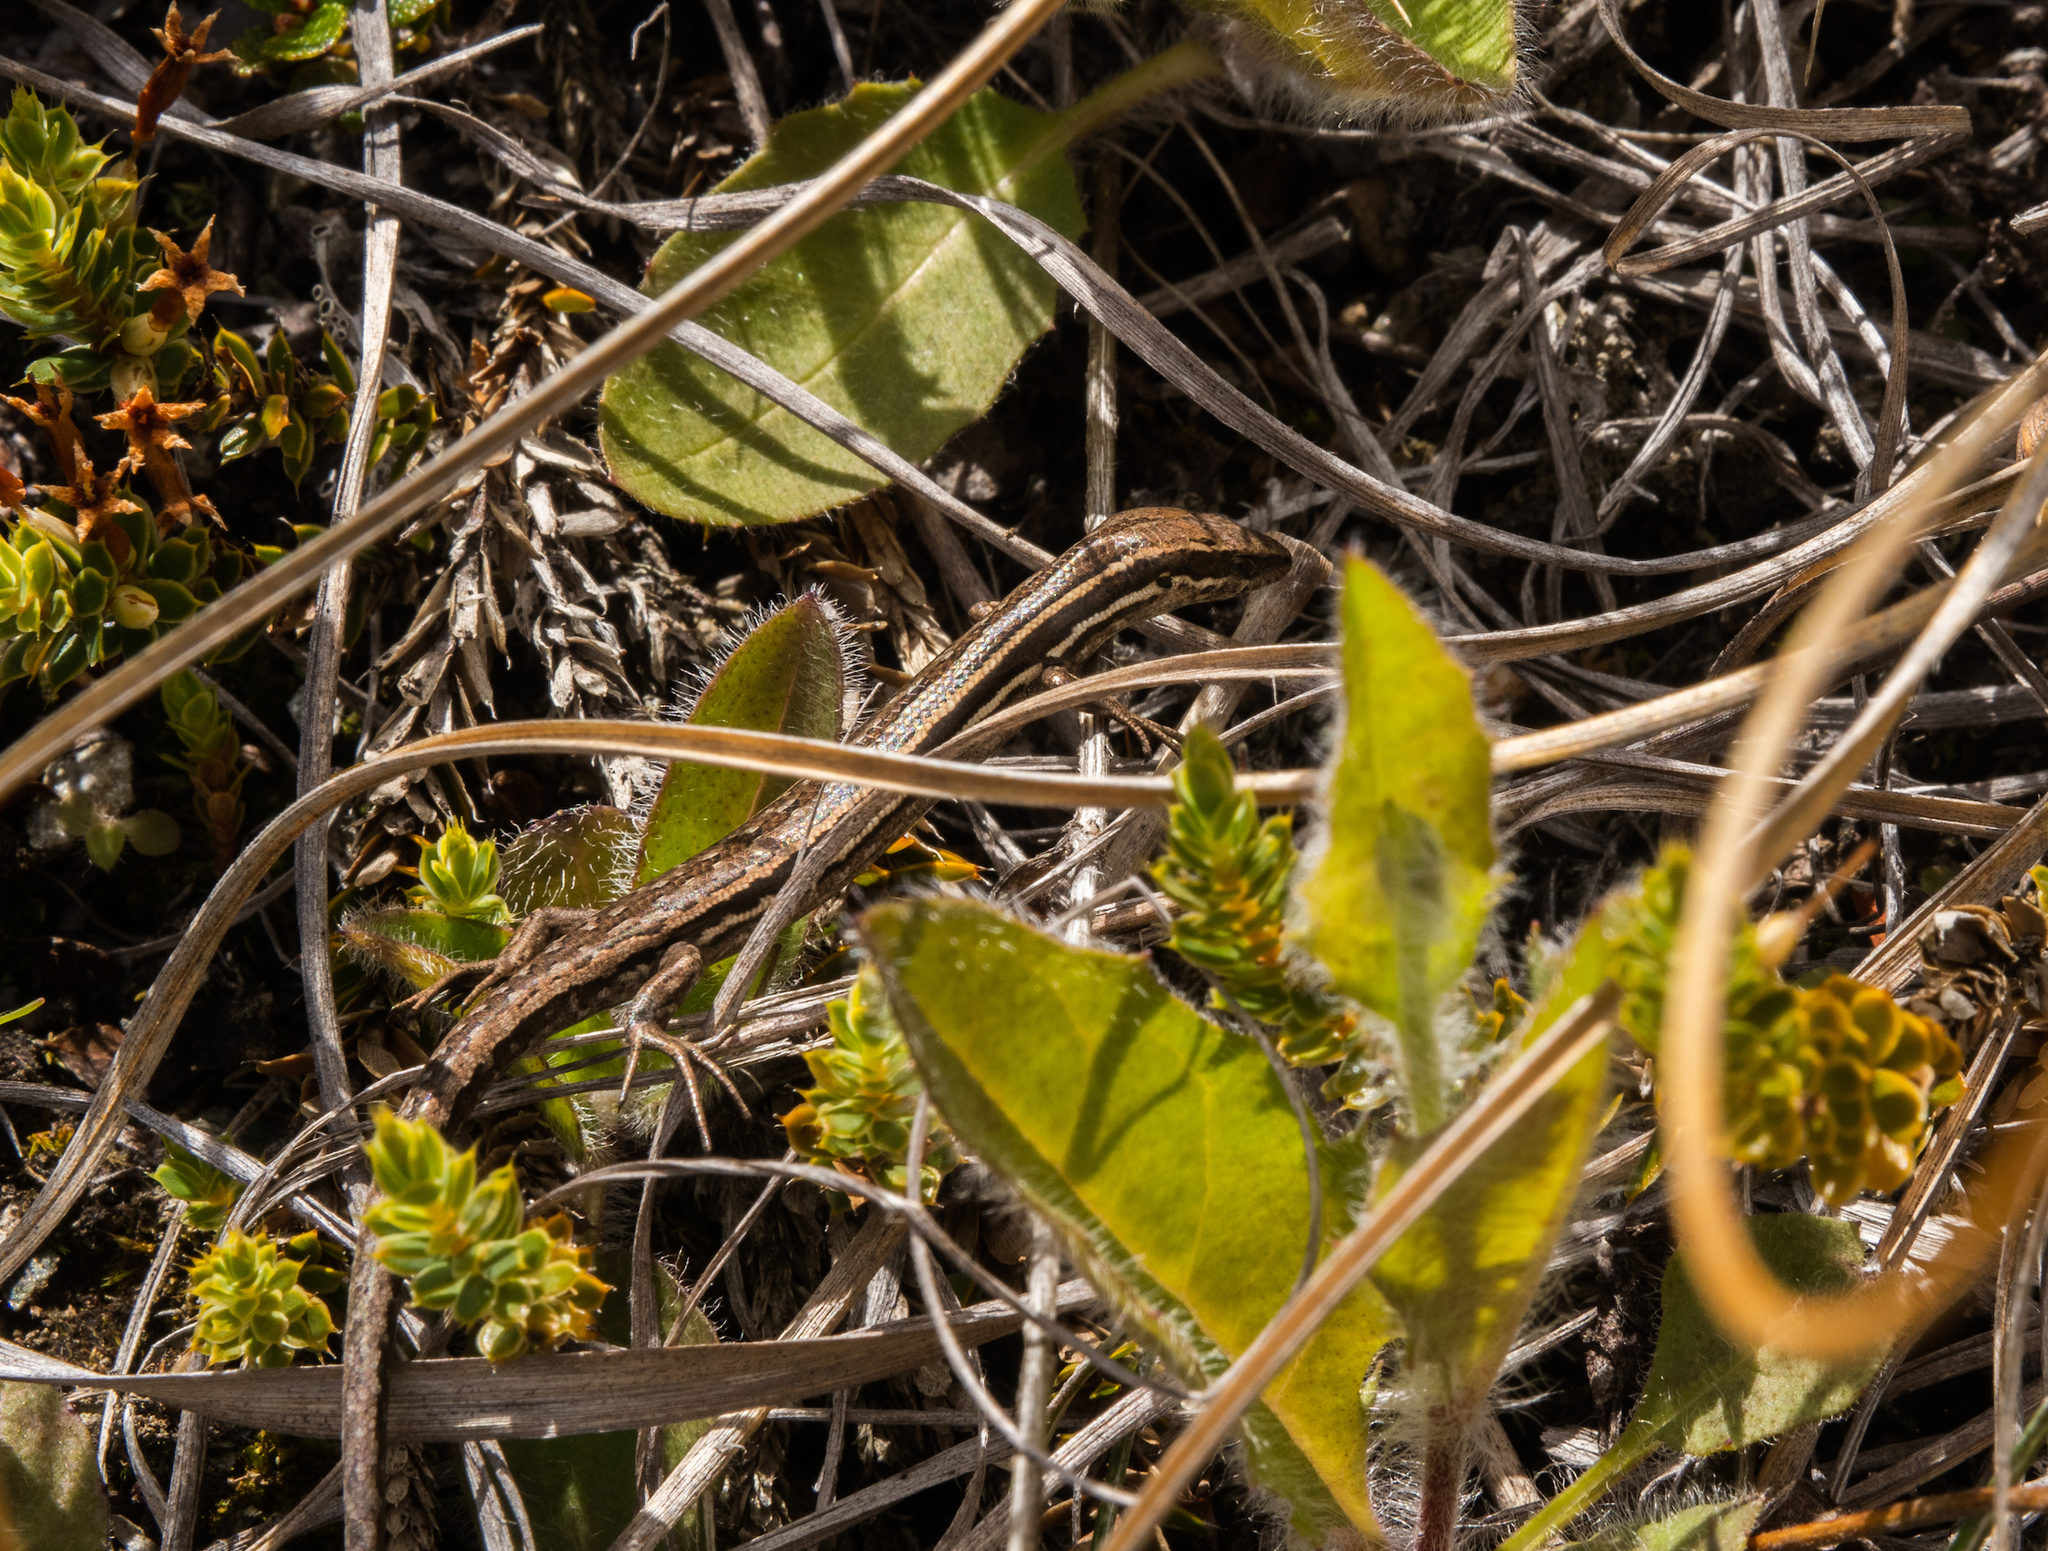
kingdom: Animalia
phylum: Chordata
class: Squamata
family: Scincidae
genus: Oligosoma
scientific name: Oligosoma maccanni
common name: Mccann’s skink
